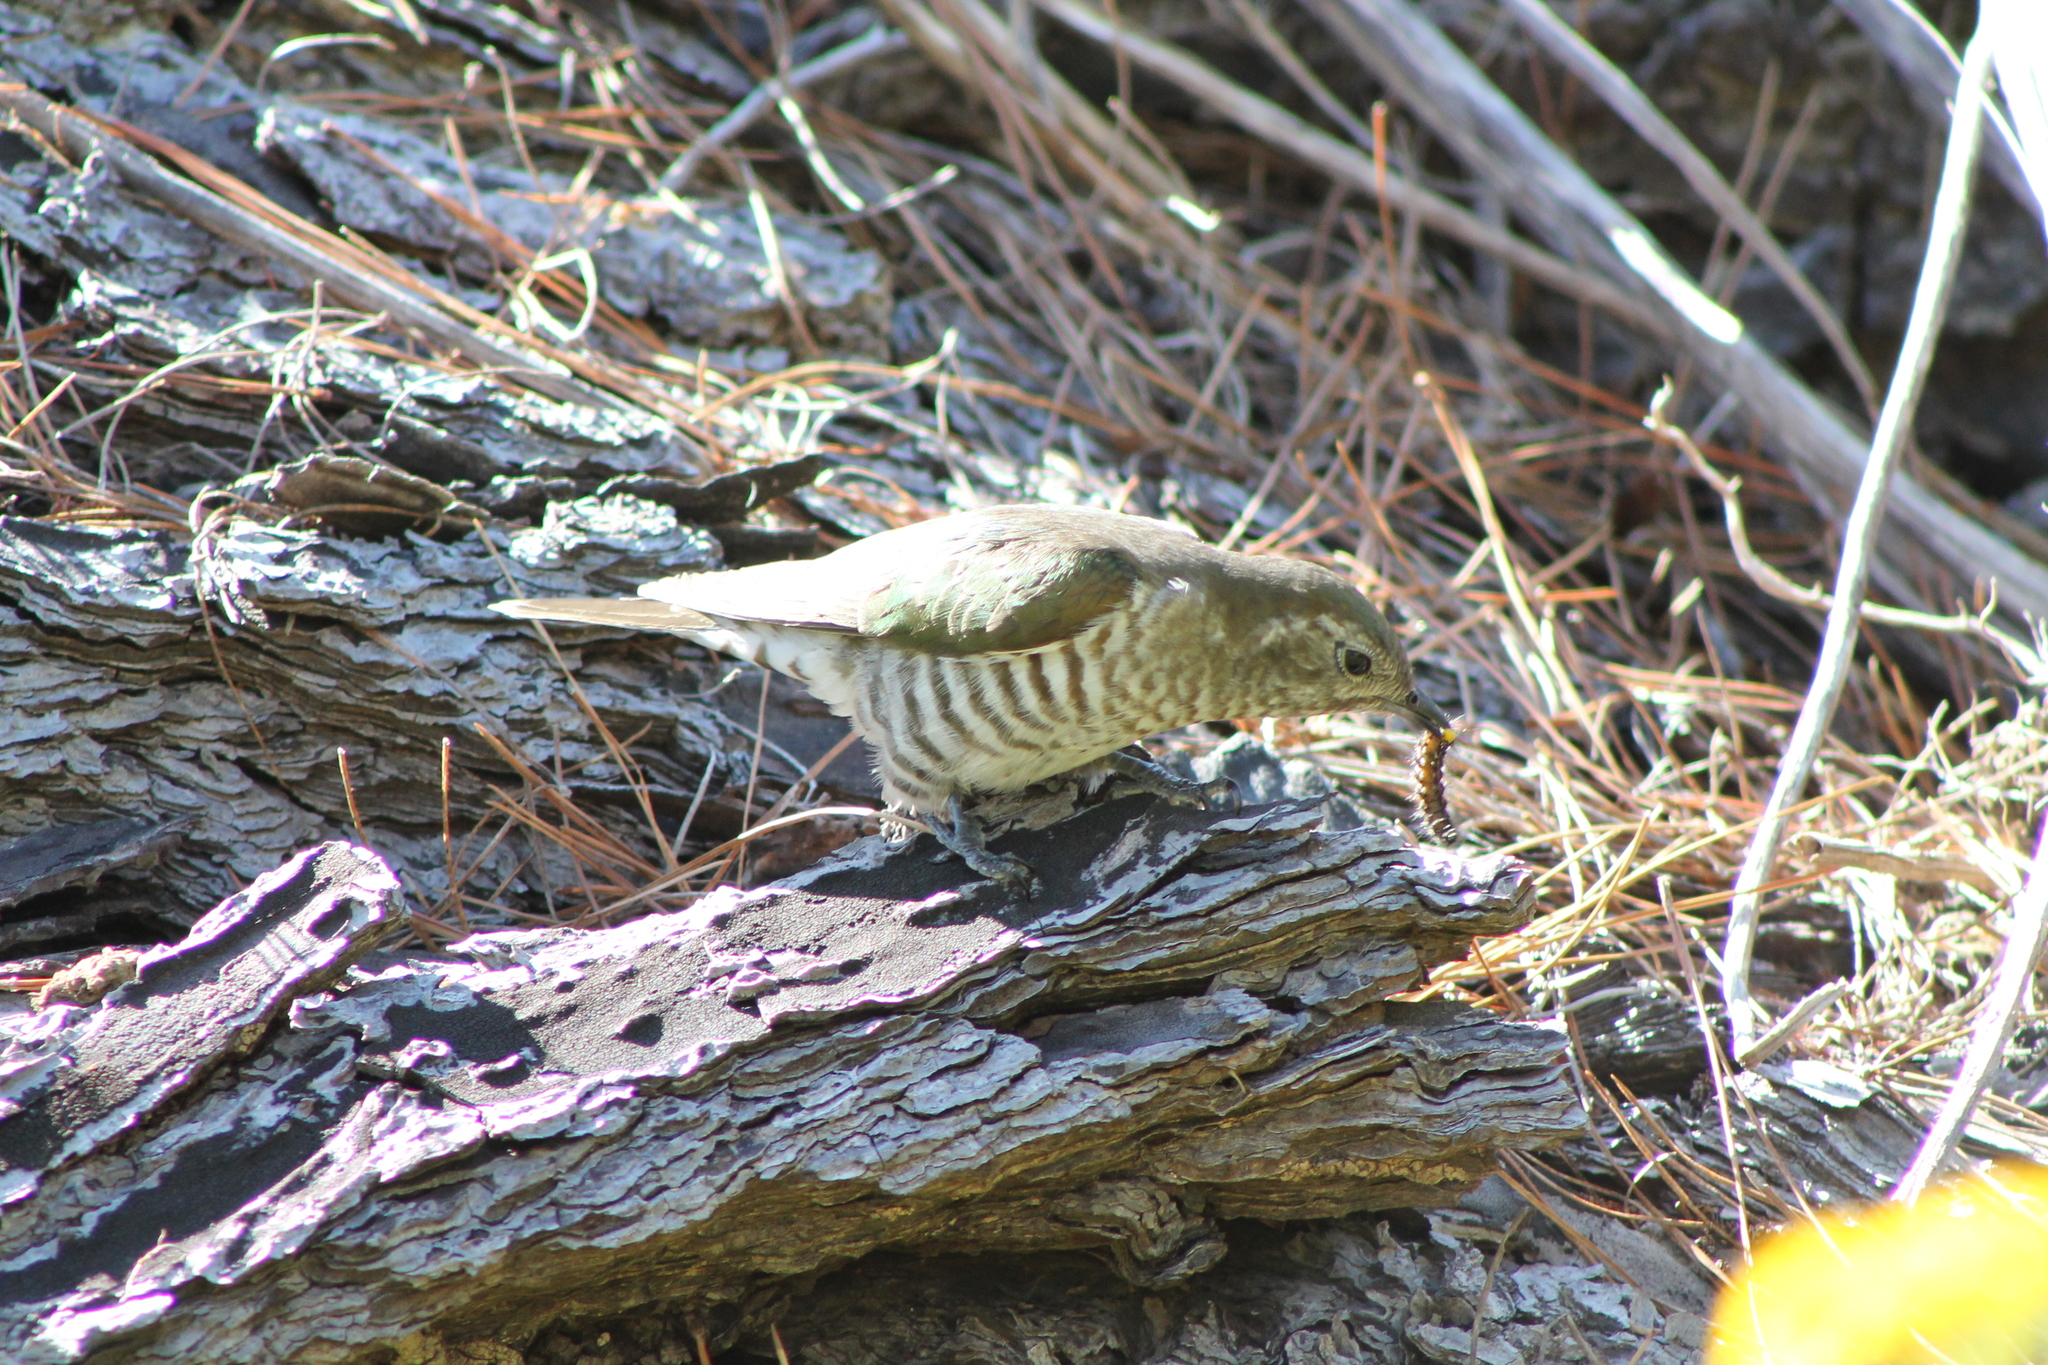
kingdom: Animalia
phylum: Chordata
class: Aves
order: Cuculiformes
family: Cuculidae
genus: Chrysococcyx
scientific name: Chrysococcyx lucidus
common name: Shining bronze cuckoo
